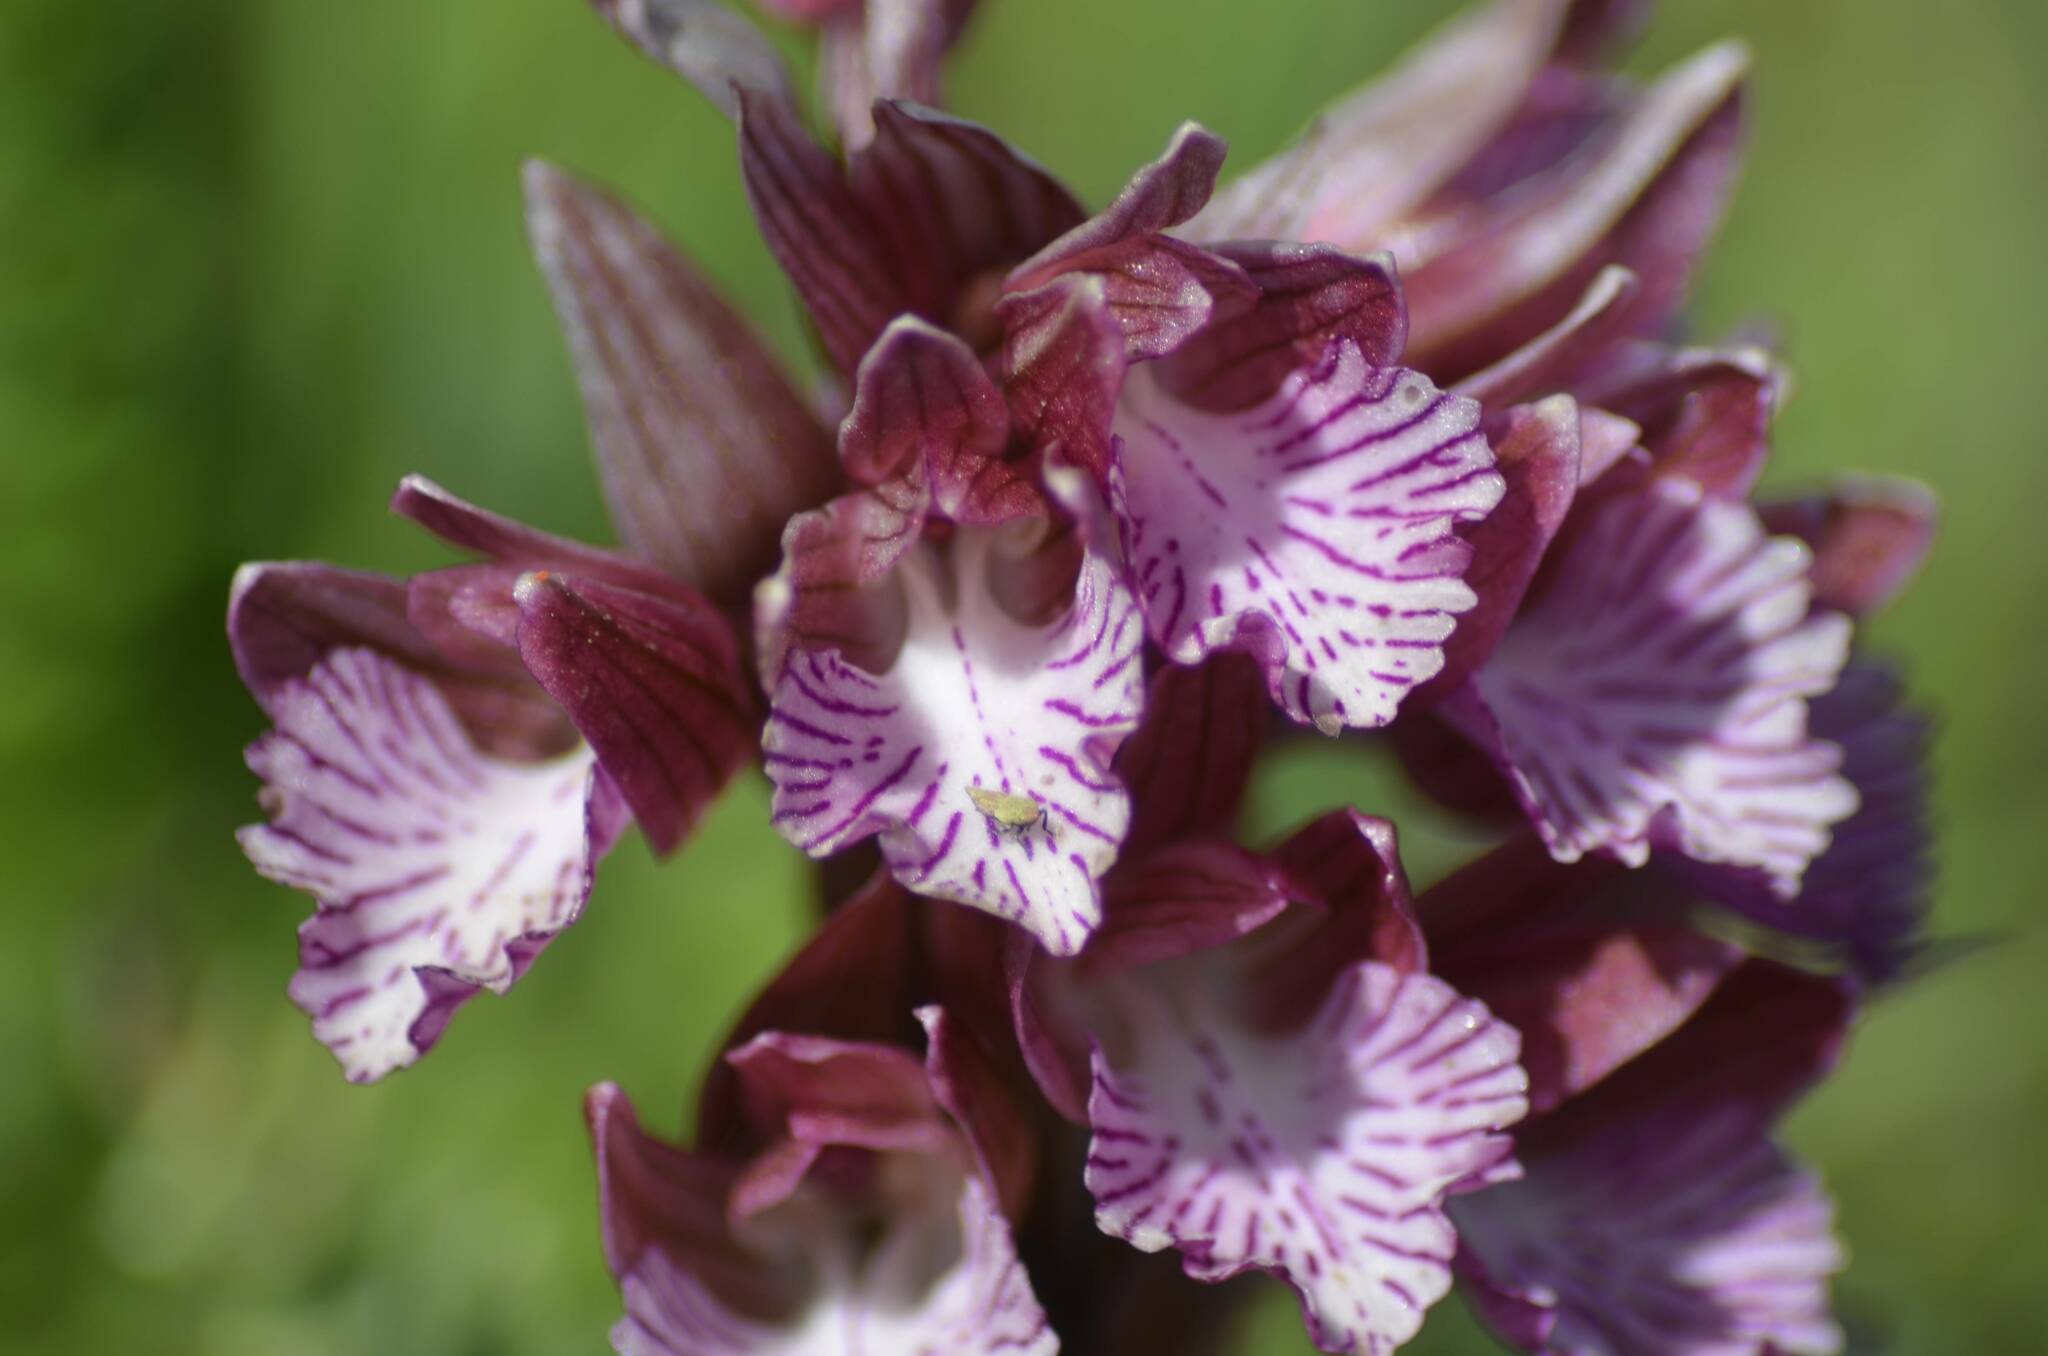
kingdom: Plantae
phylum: Tracheophyta
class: Liliopsida
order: Asparagales
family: Orchidaceae
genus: Anacamptis
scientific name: Anacamptis papilionacea
